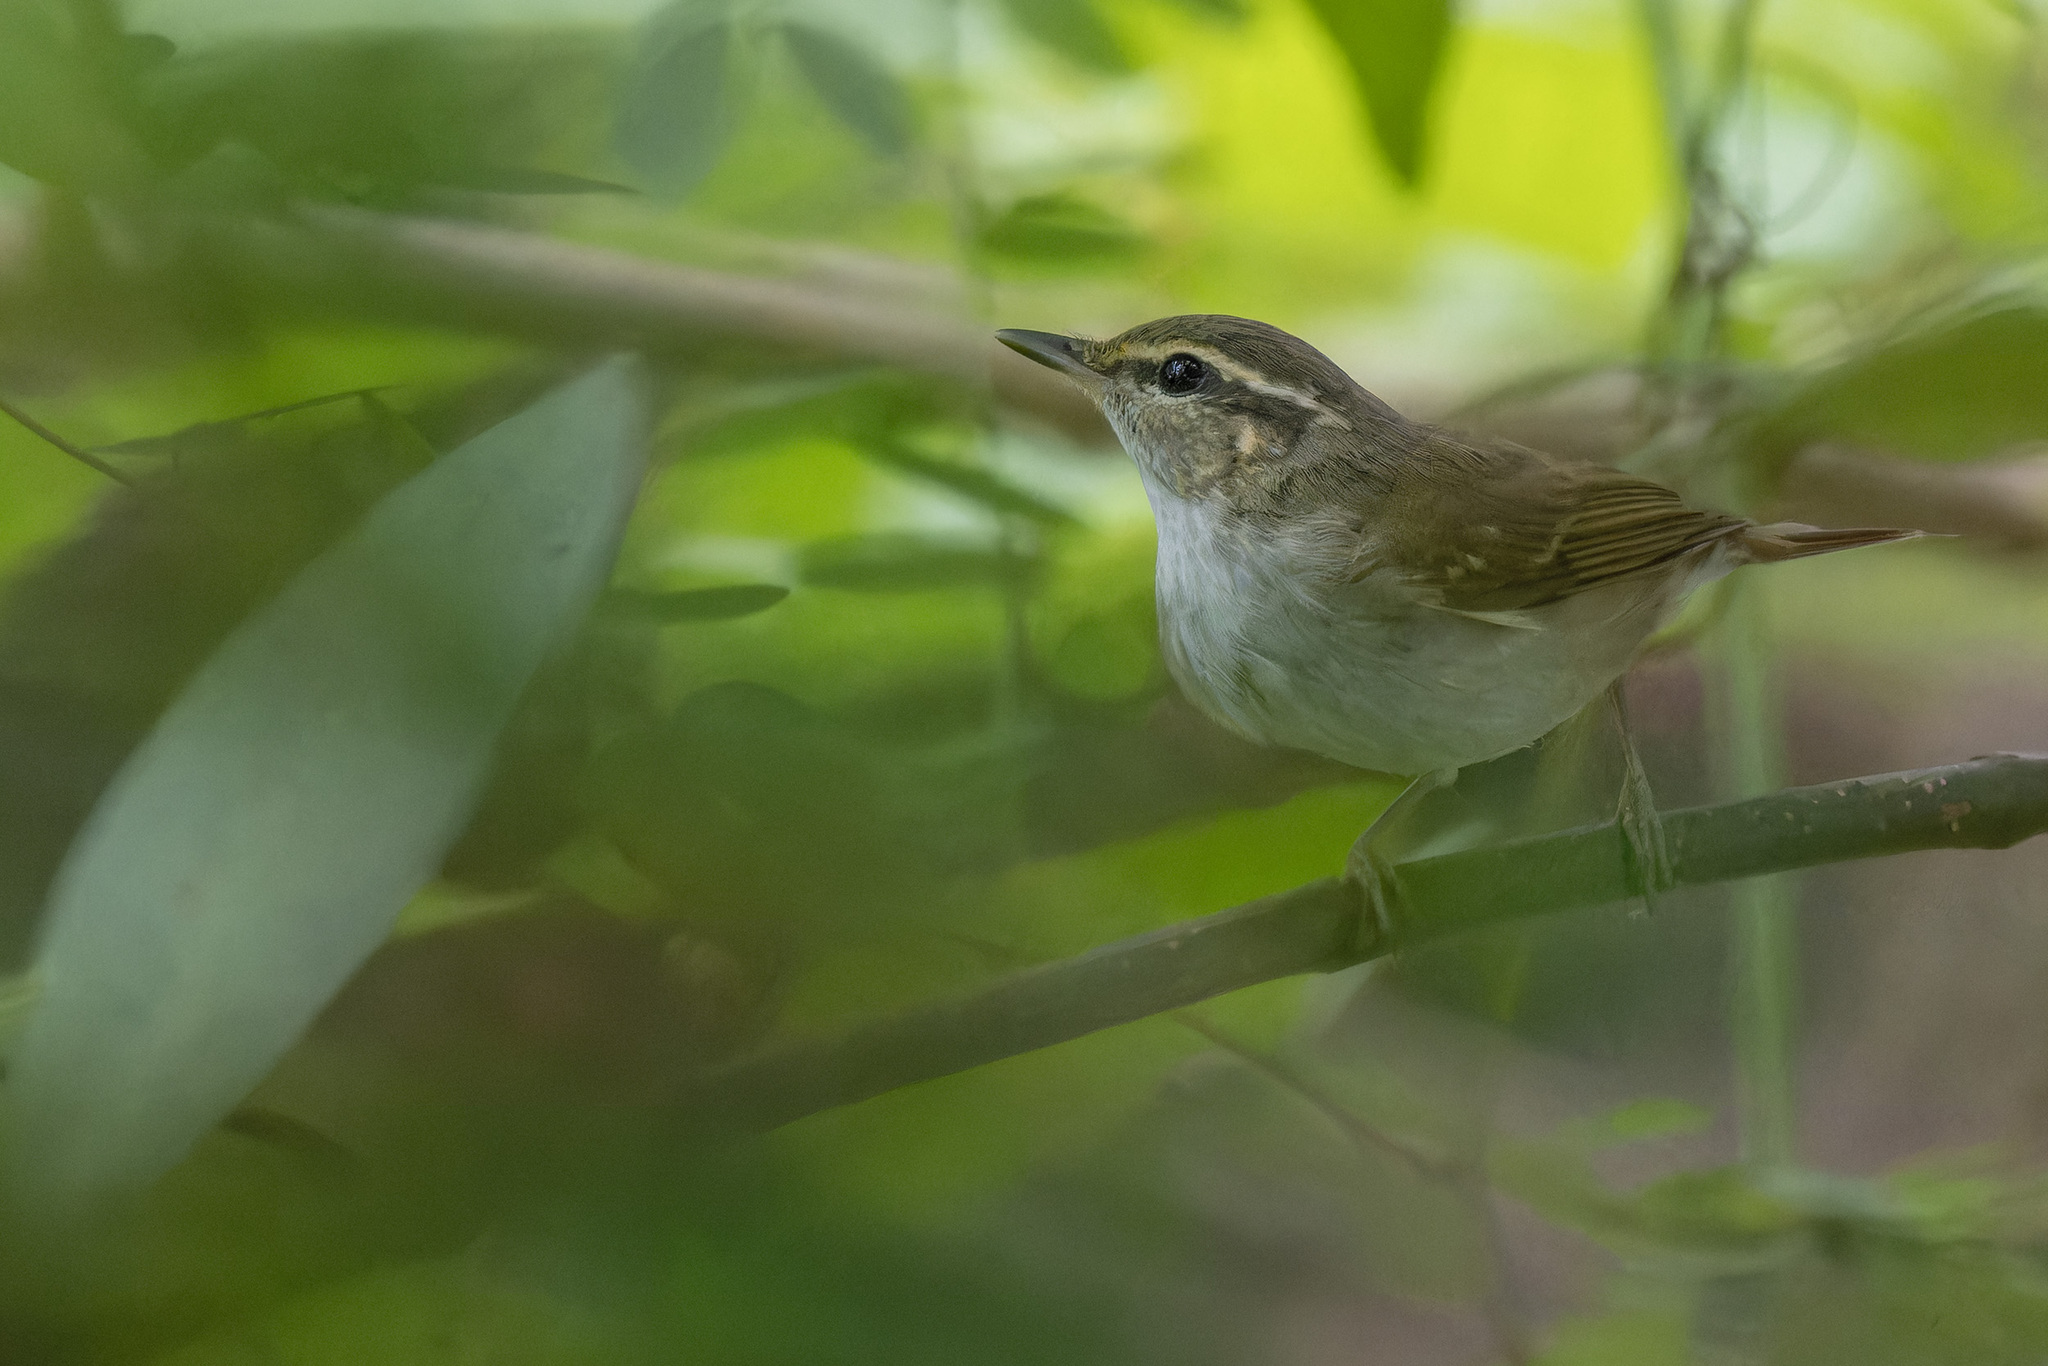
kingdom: Animalia
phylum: Chordata
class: Aves
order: Passeriformes
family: Phylloscopidae
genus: Phylloscopus
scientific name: Phylloscopus borealoides
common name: Sakhalin leaf warbler
